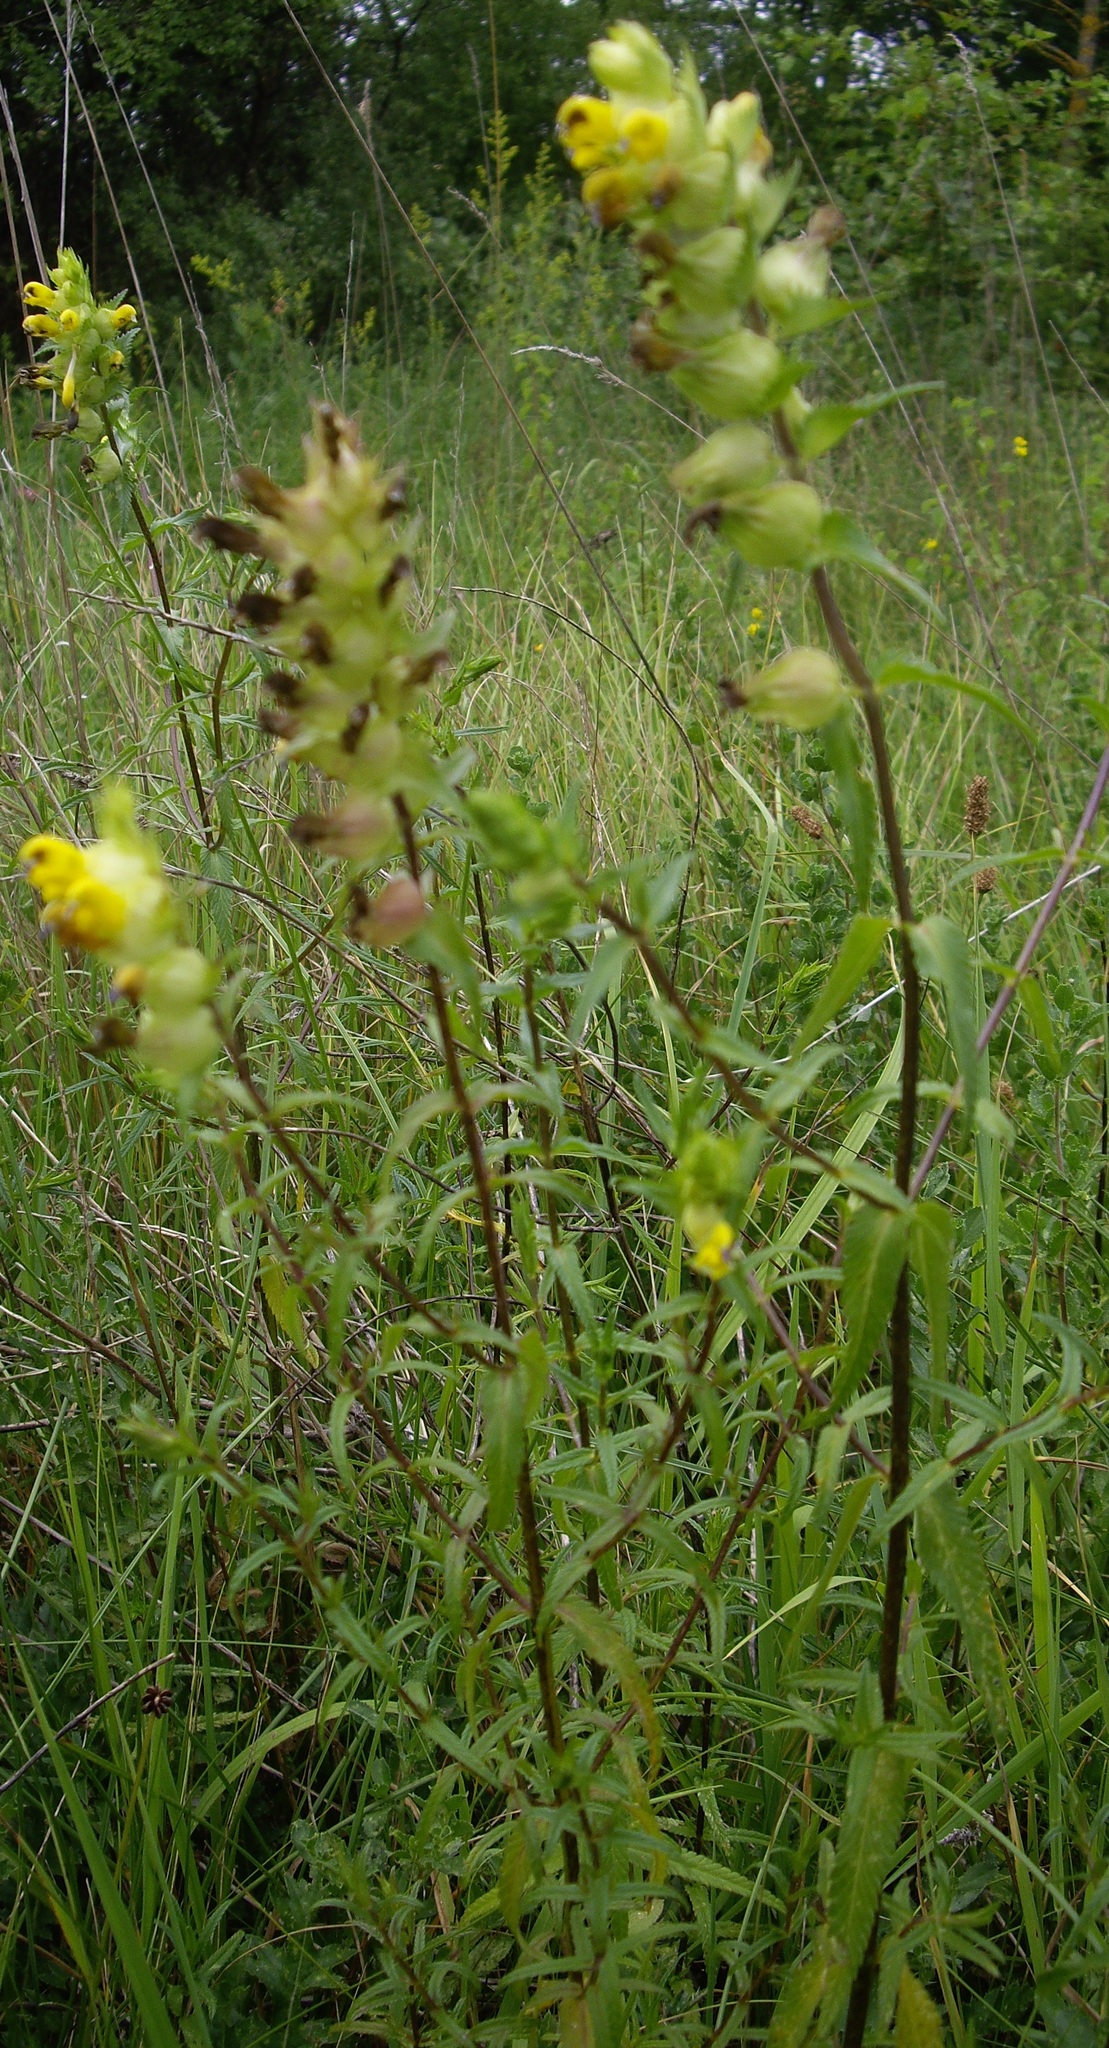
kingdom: Plantae
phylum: Tracheophyta
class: Magnoliopsida
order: Lamiales
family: Orobanchaceae
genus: Rhinanthus
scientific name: Rhinanthus minor
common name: Yellow-rattle
